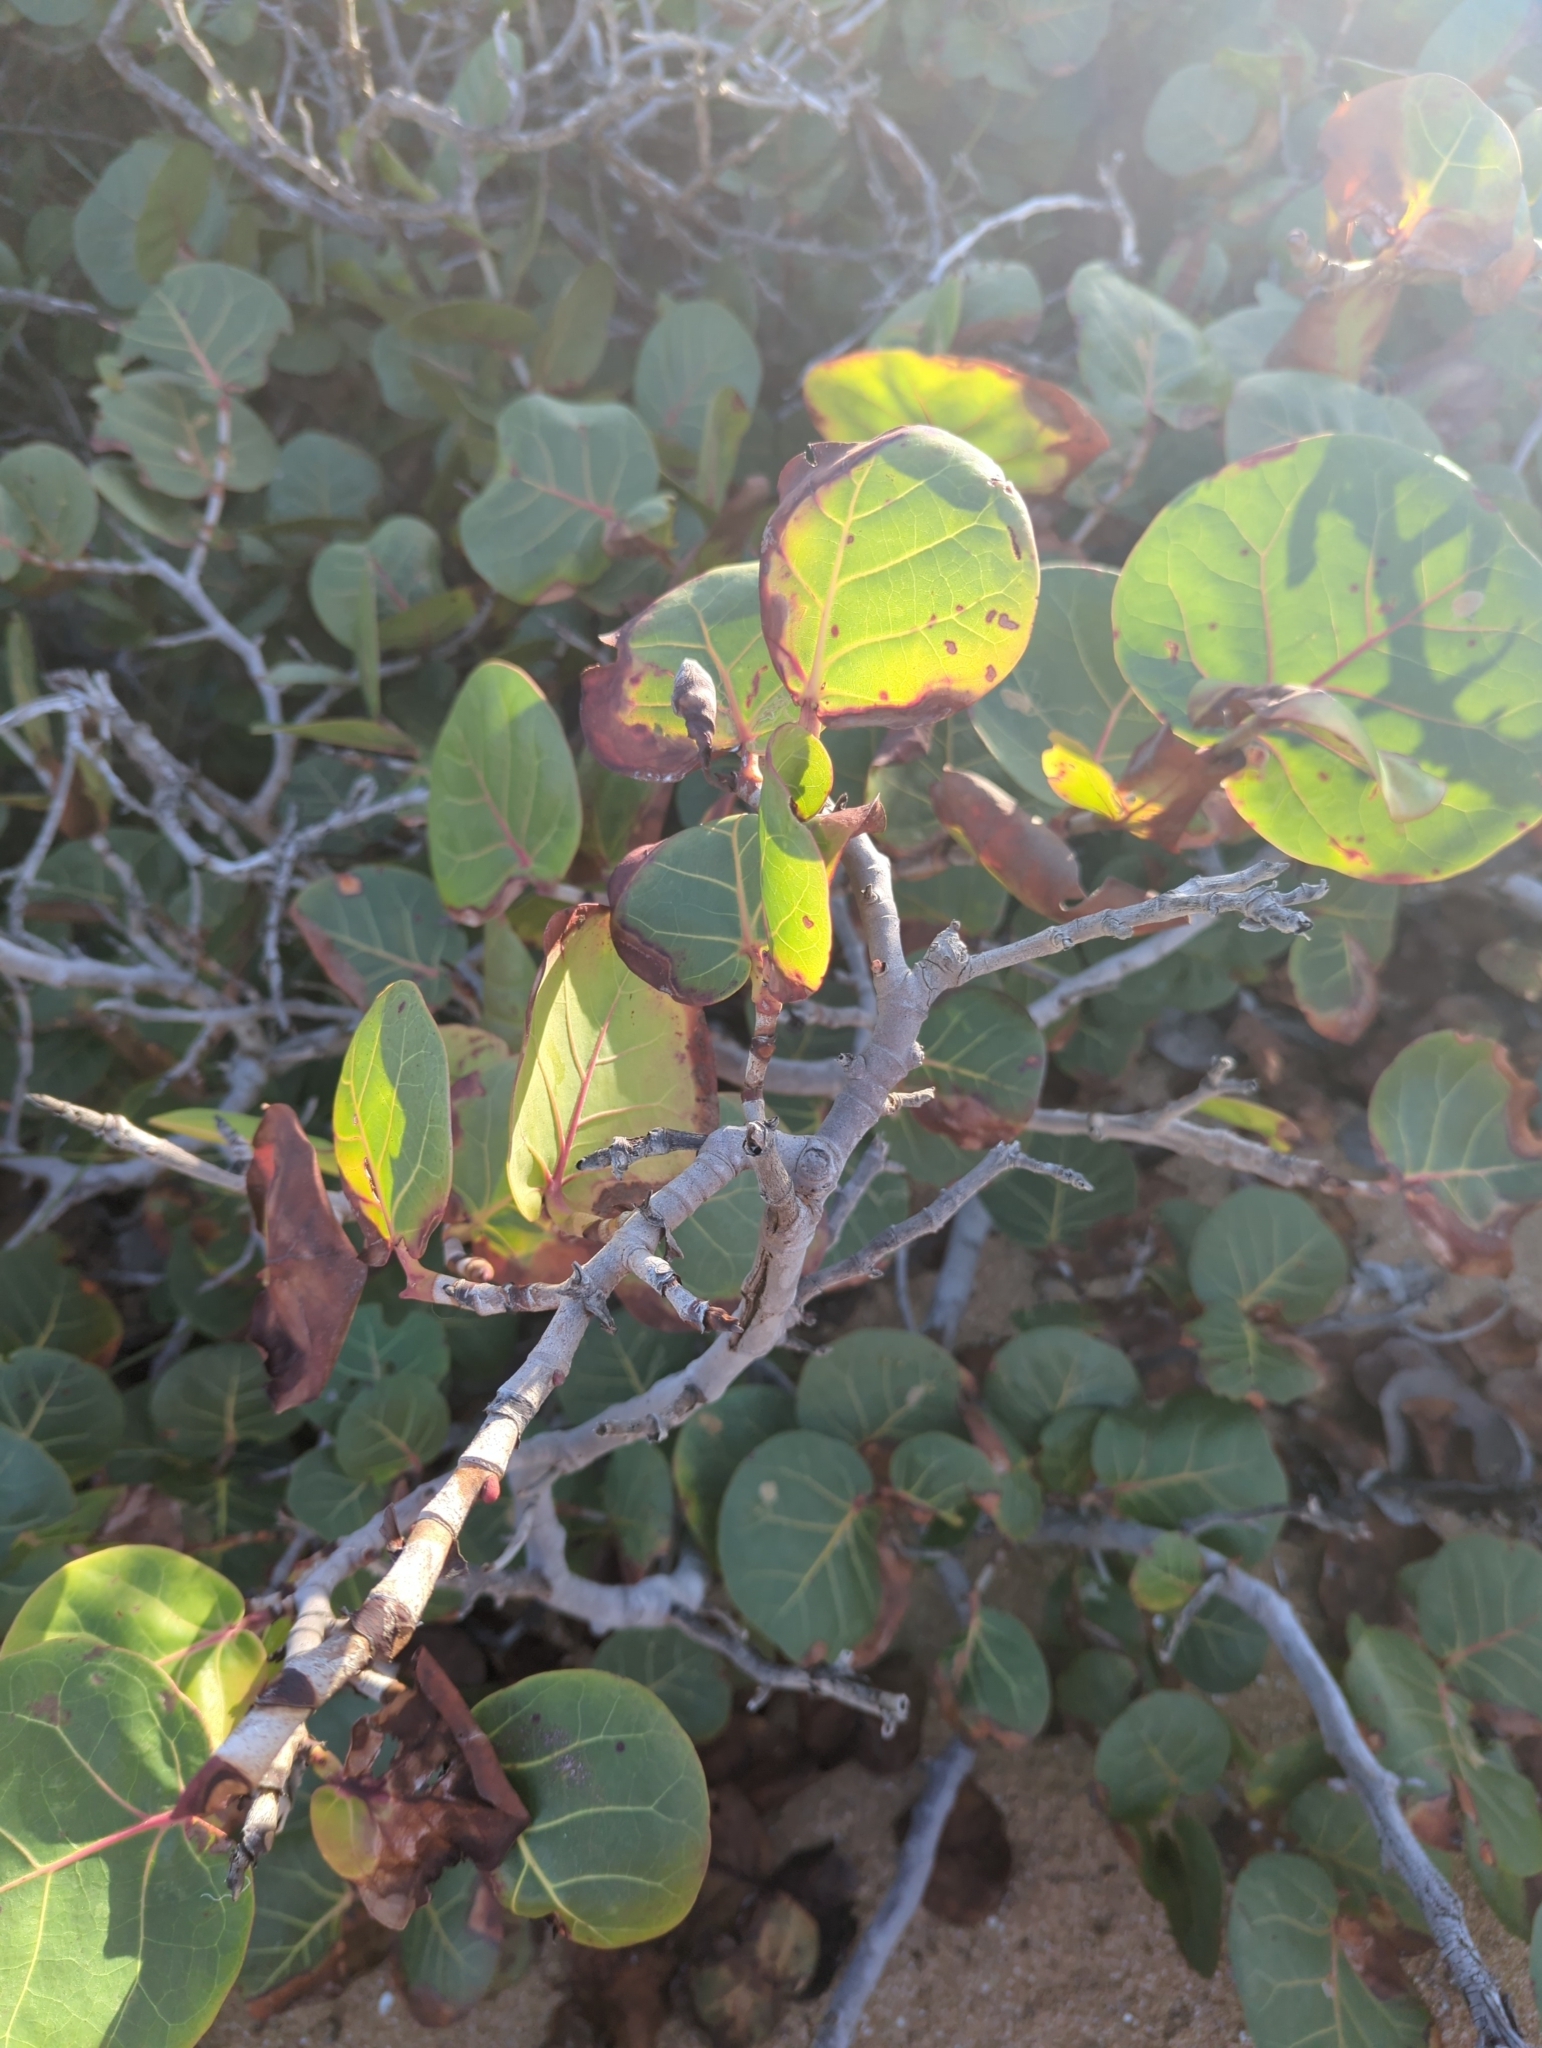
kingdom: Plantae
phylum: Tracheophyta
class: Magnoliopsida
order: Caryophyllales
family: Polygonaceae
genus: Coccoloba
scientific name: Coccoloba uvifera
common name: Seagrape
